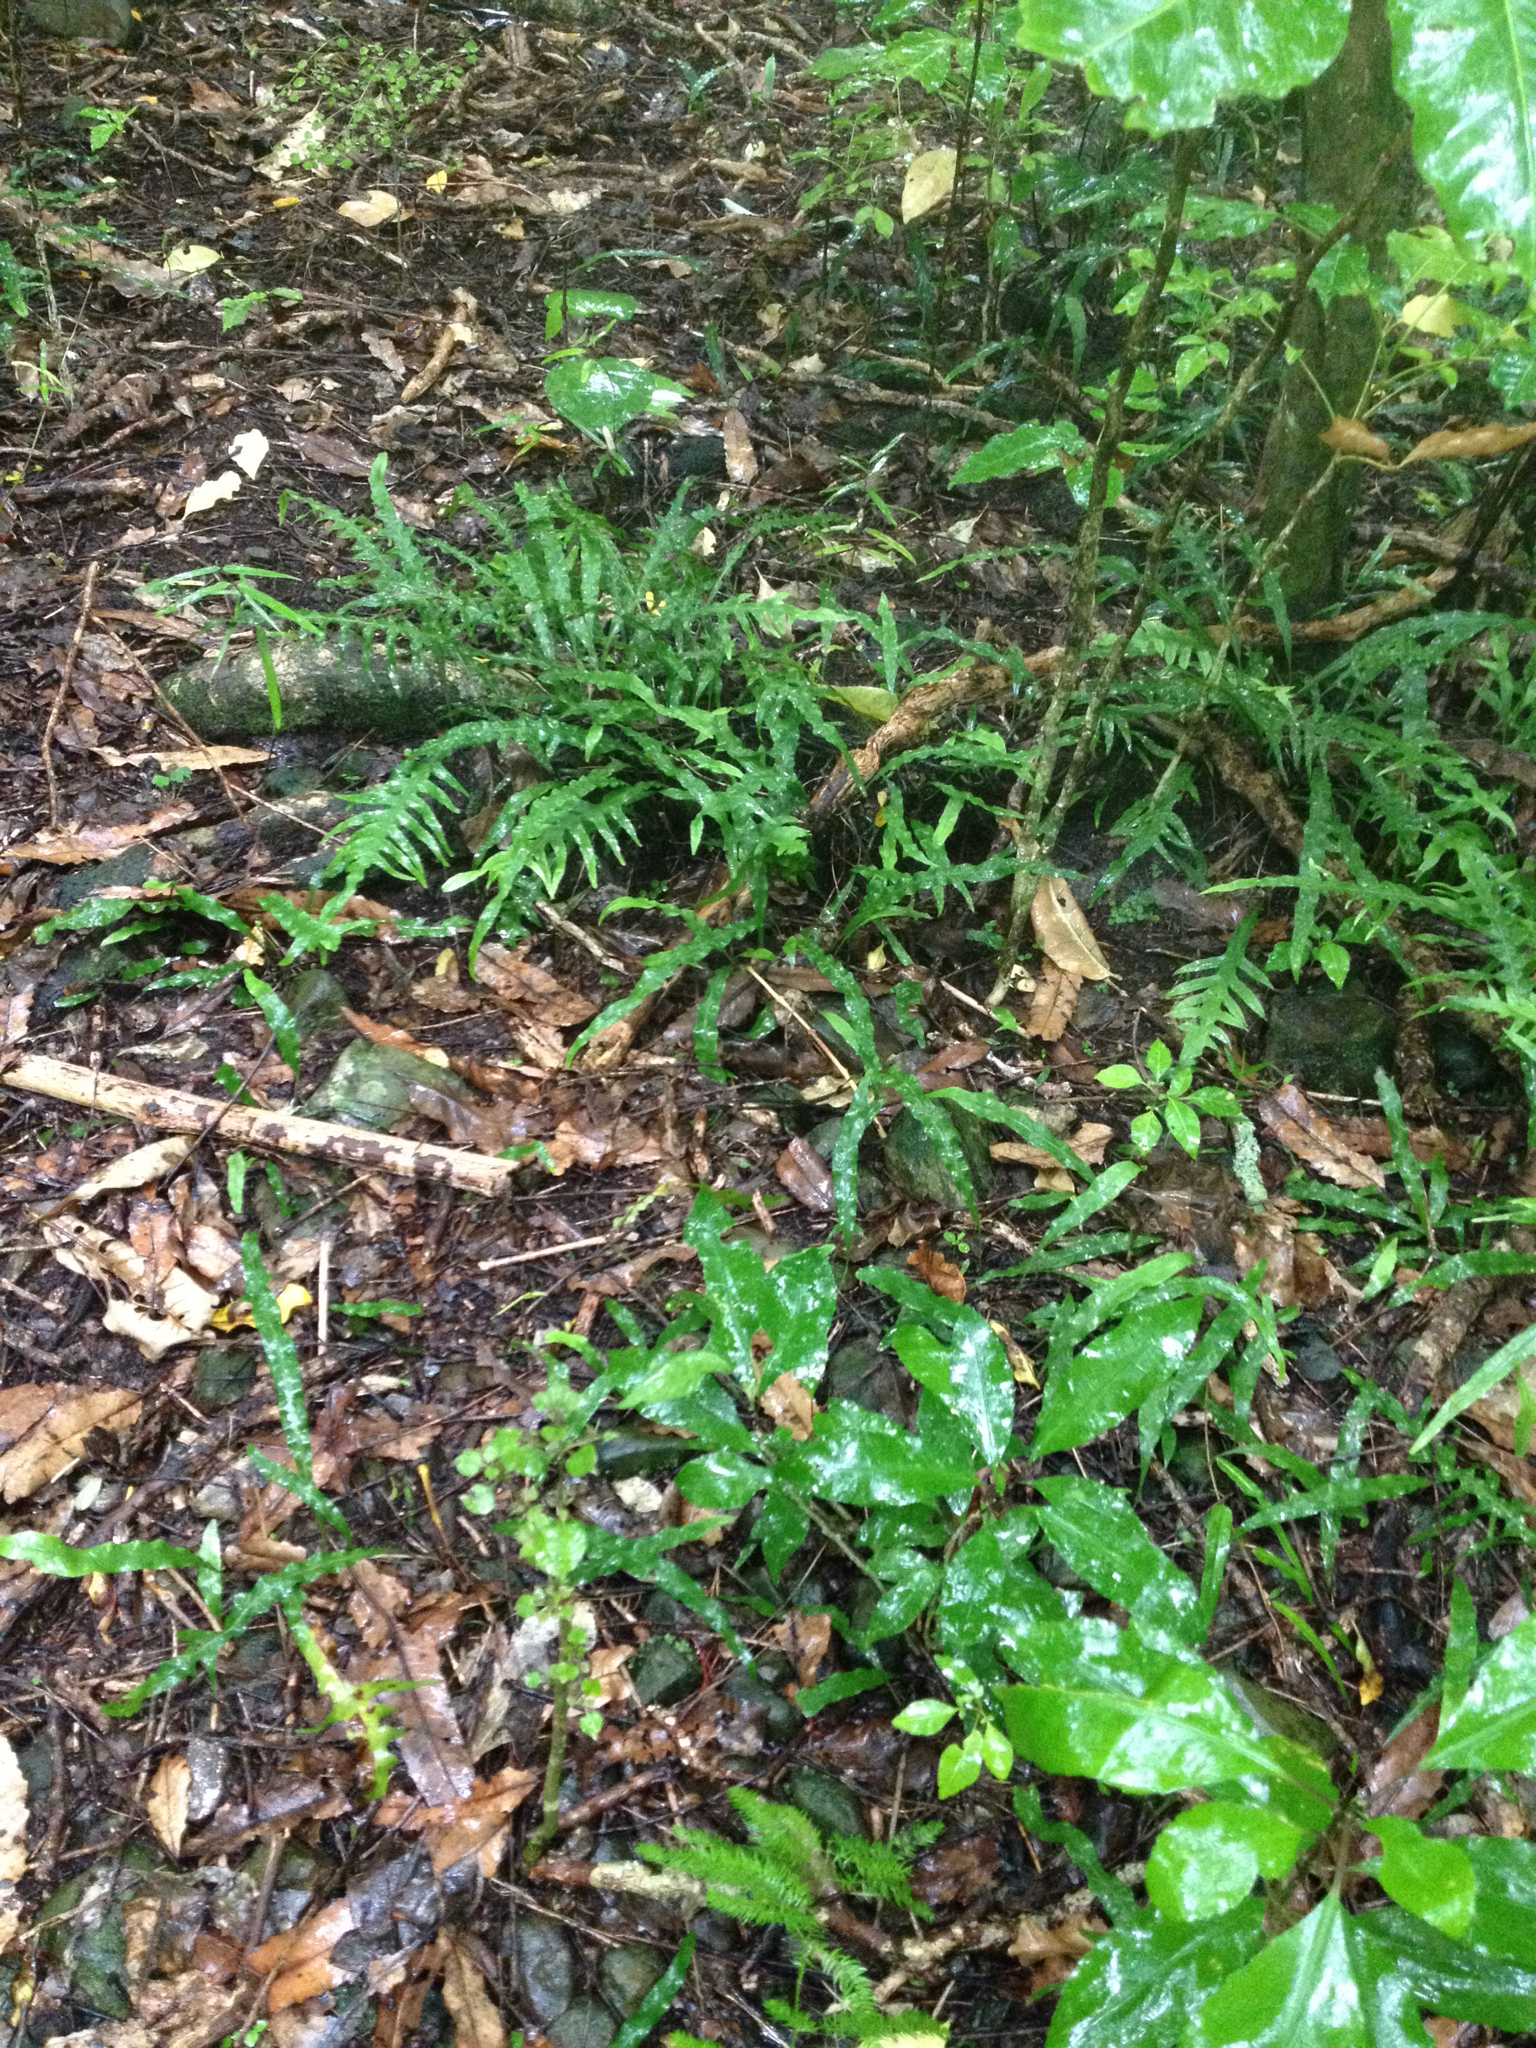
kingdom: Plantae
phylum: Tracheophyta
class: Polypodiopsida
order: Polypodiales
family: Polypodiaceae
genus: Lecanopteris
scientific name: Lecanopteris scandens
